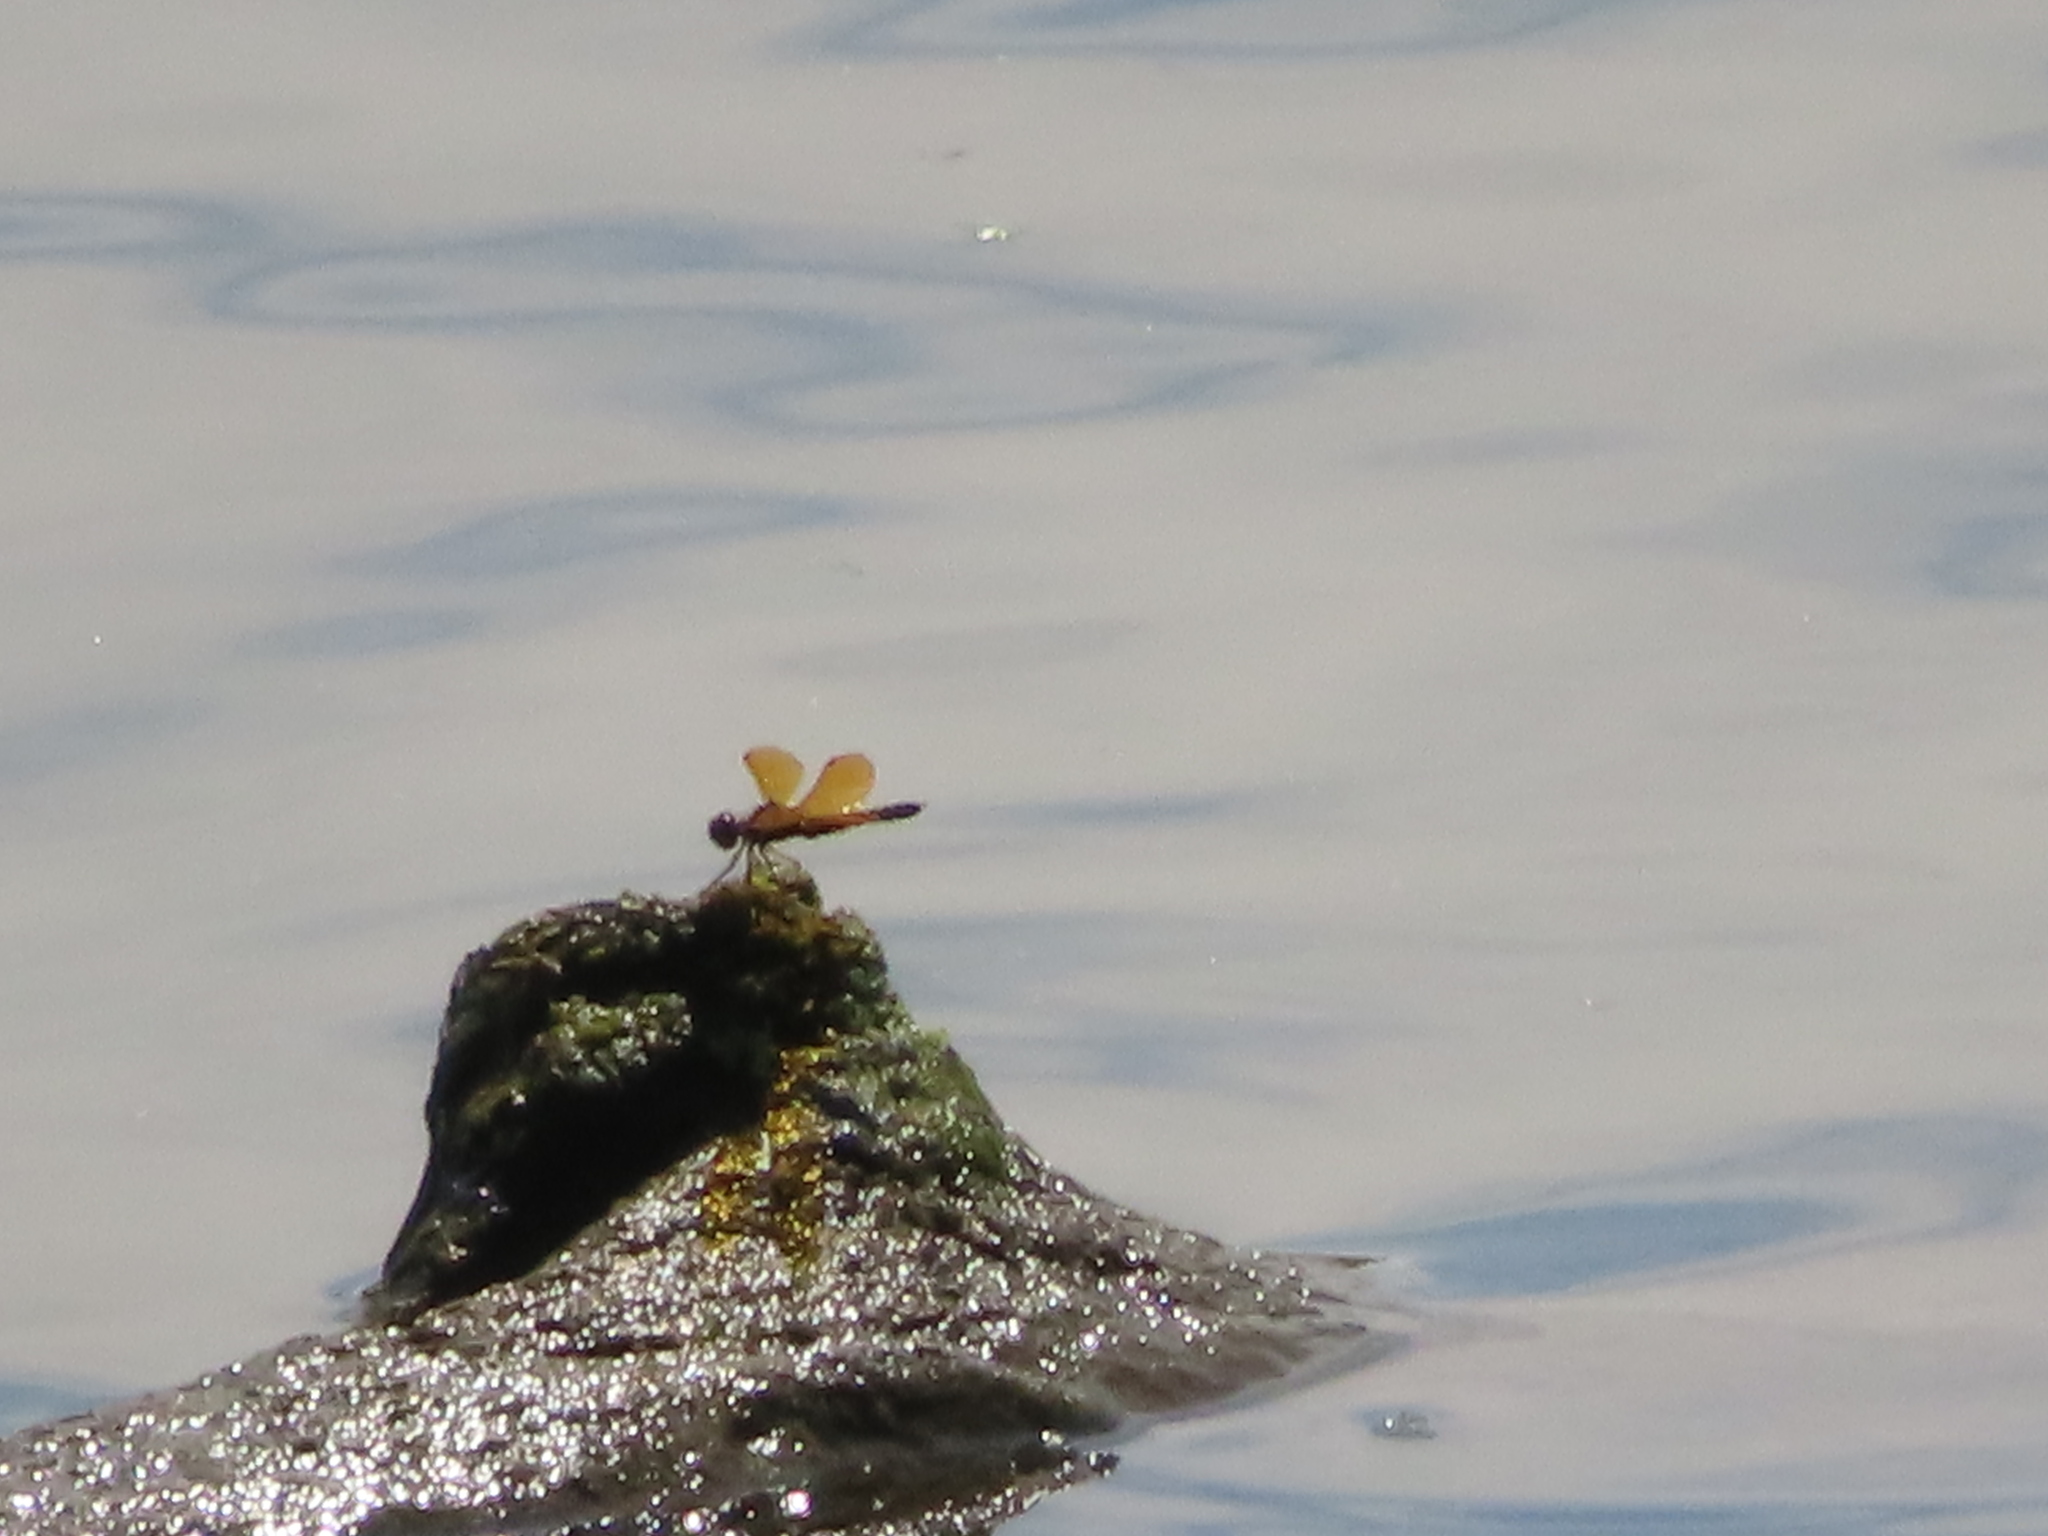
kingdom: Animalia
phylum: Arthropoda
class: Insecta
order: Odonata
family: Libellulidae
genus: Perithemis
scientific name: Perithemis tenera
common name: Eastern amberwing
